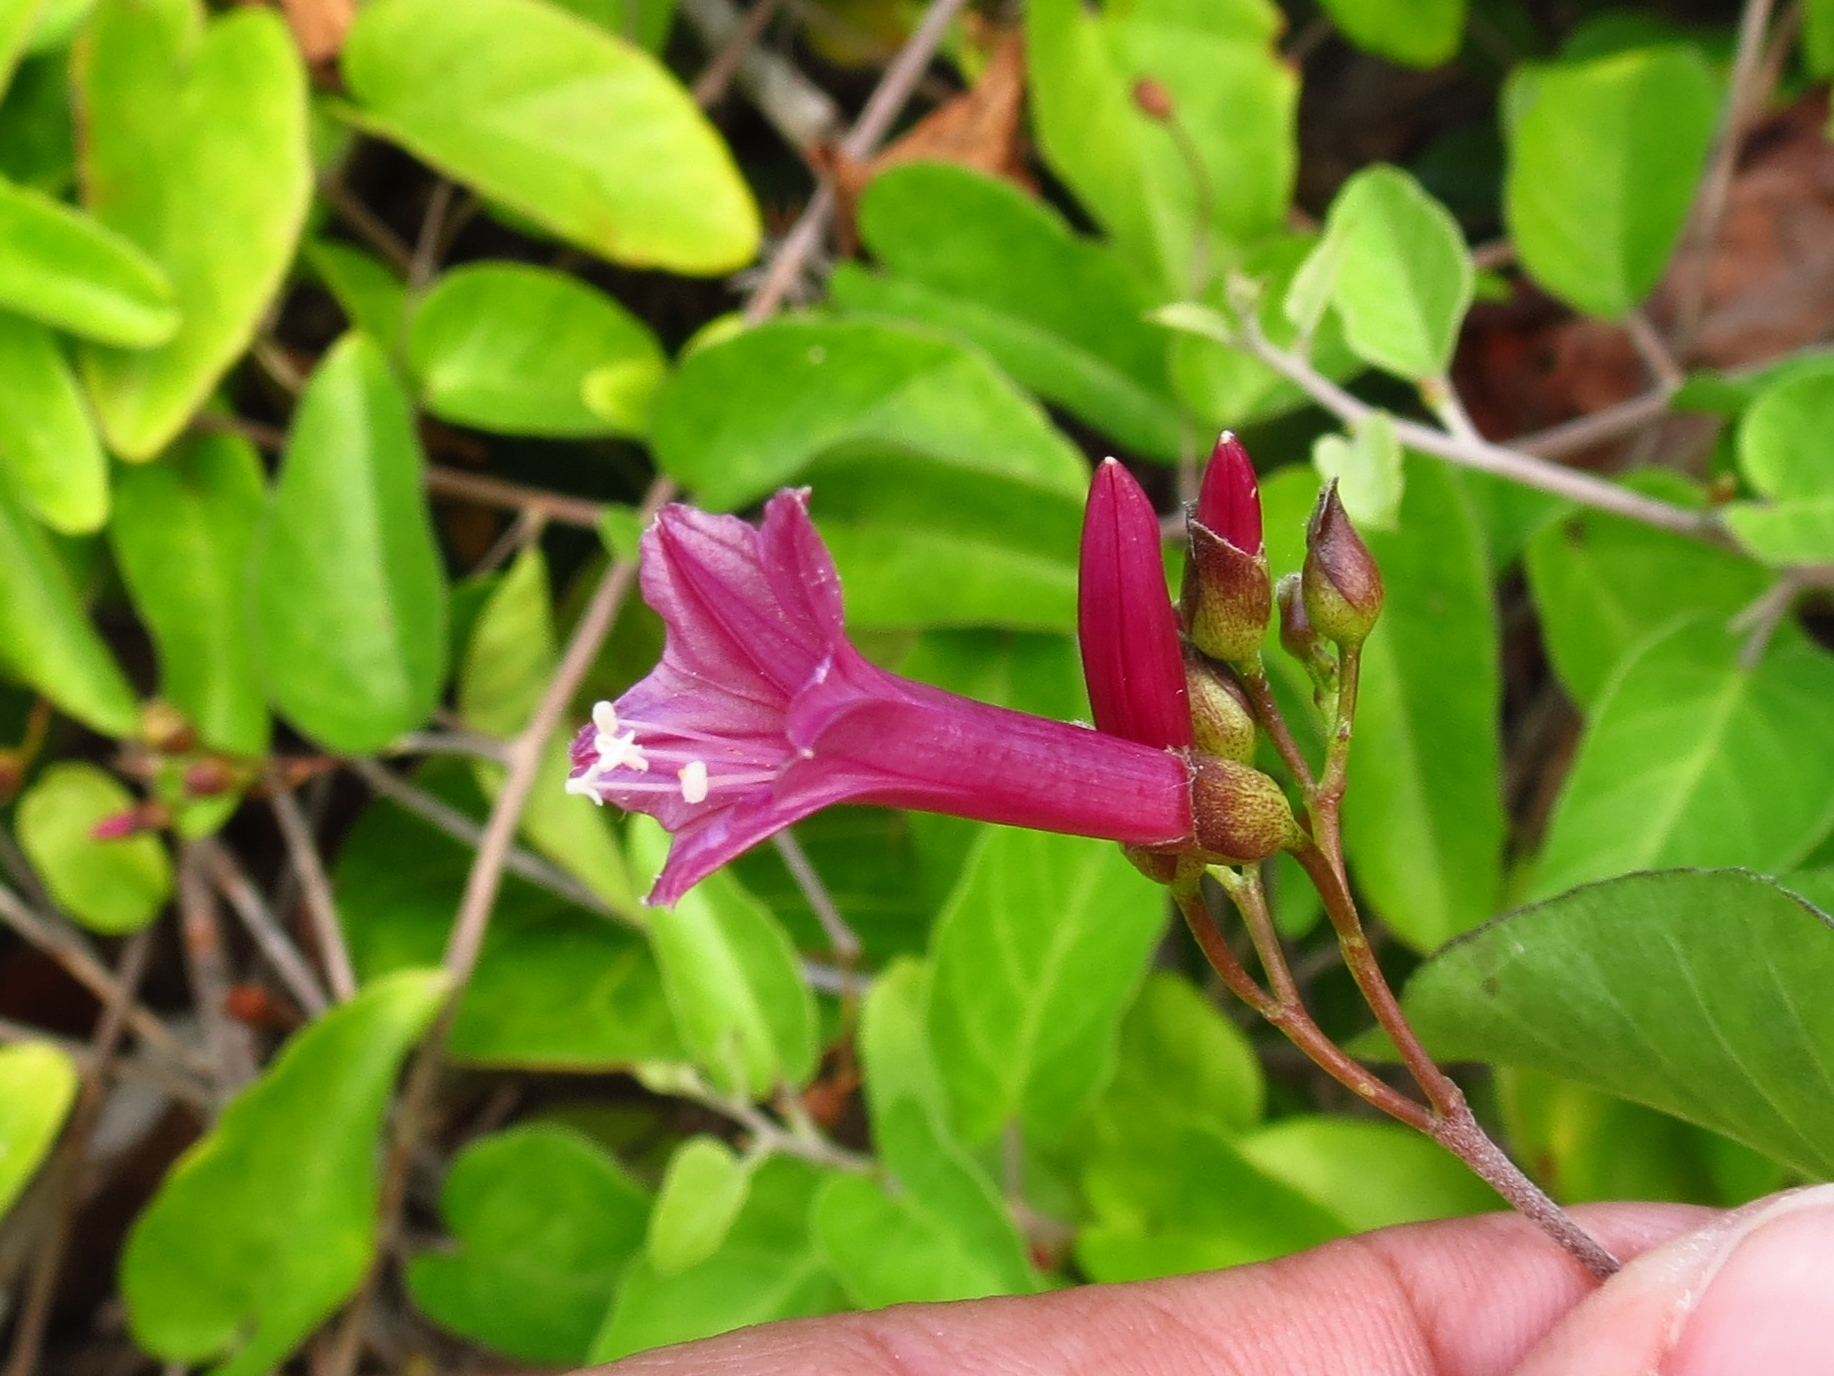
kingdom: Plantae
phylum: Tracheophyta
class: Magnoliopsida
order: Solanales
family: Convolvulaceae
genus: Jacquemontia
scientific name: Jacquemontia solanifolia
